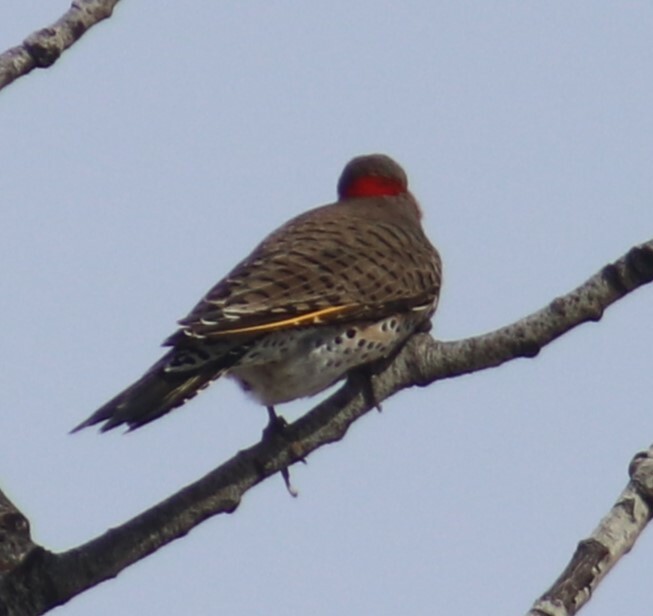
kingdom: Animalia
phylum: Chordata
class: Aves
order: Piciformes
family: Picidae
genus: Colaptes
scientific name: Colaptes auratus
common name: Northern flicker
